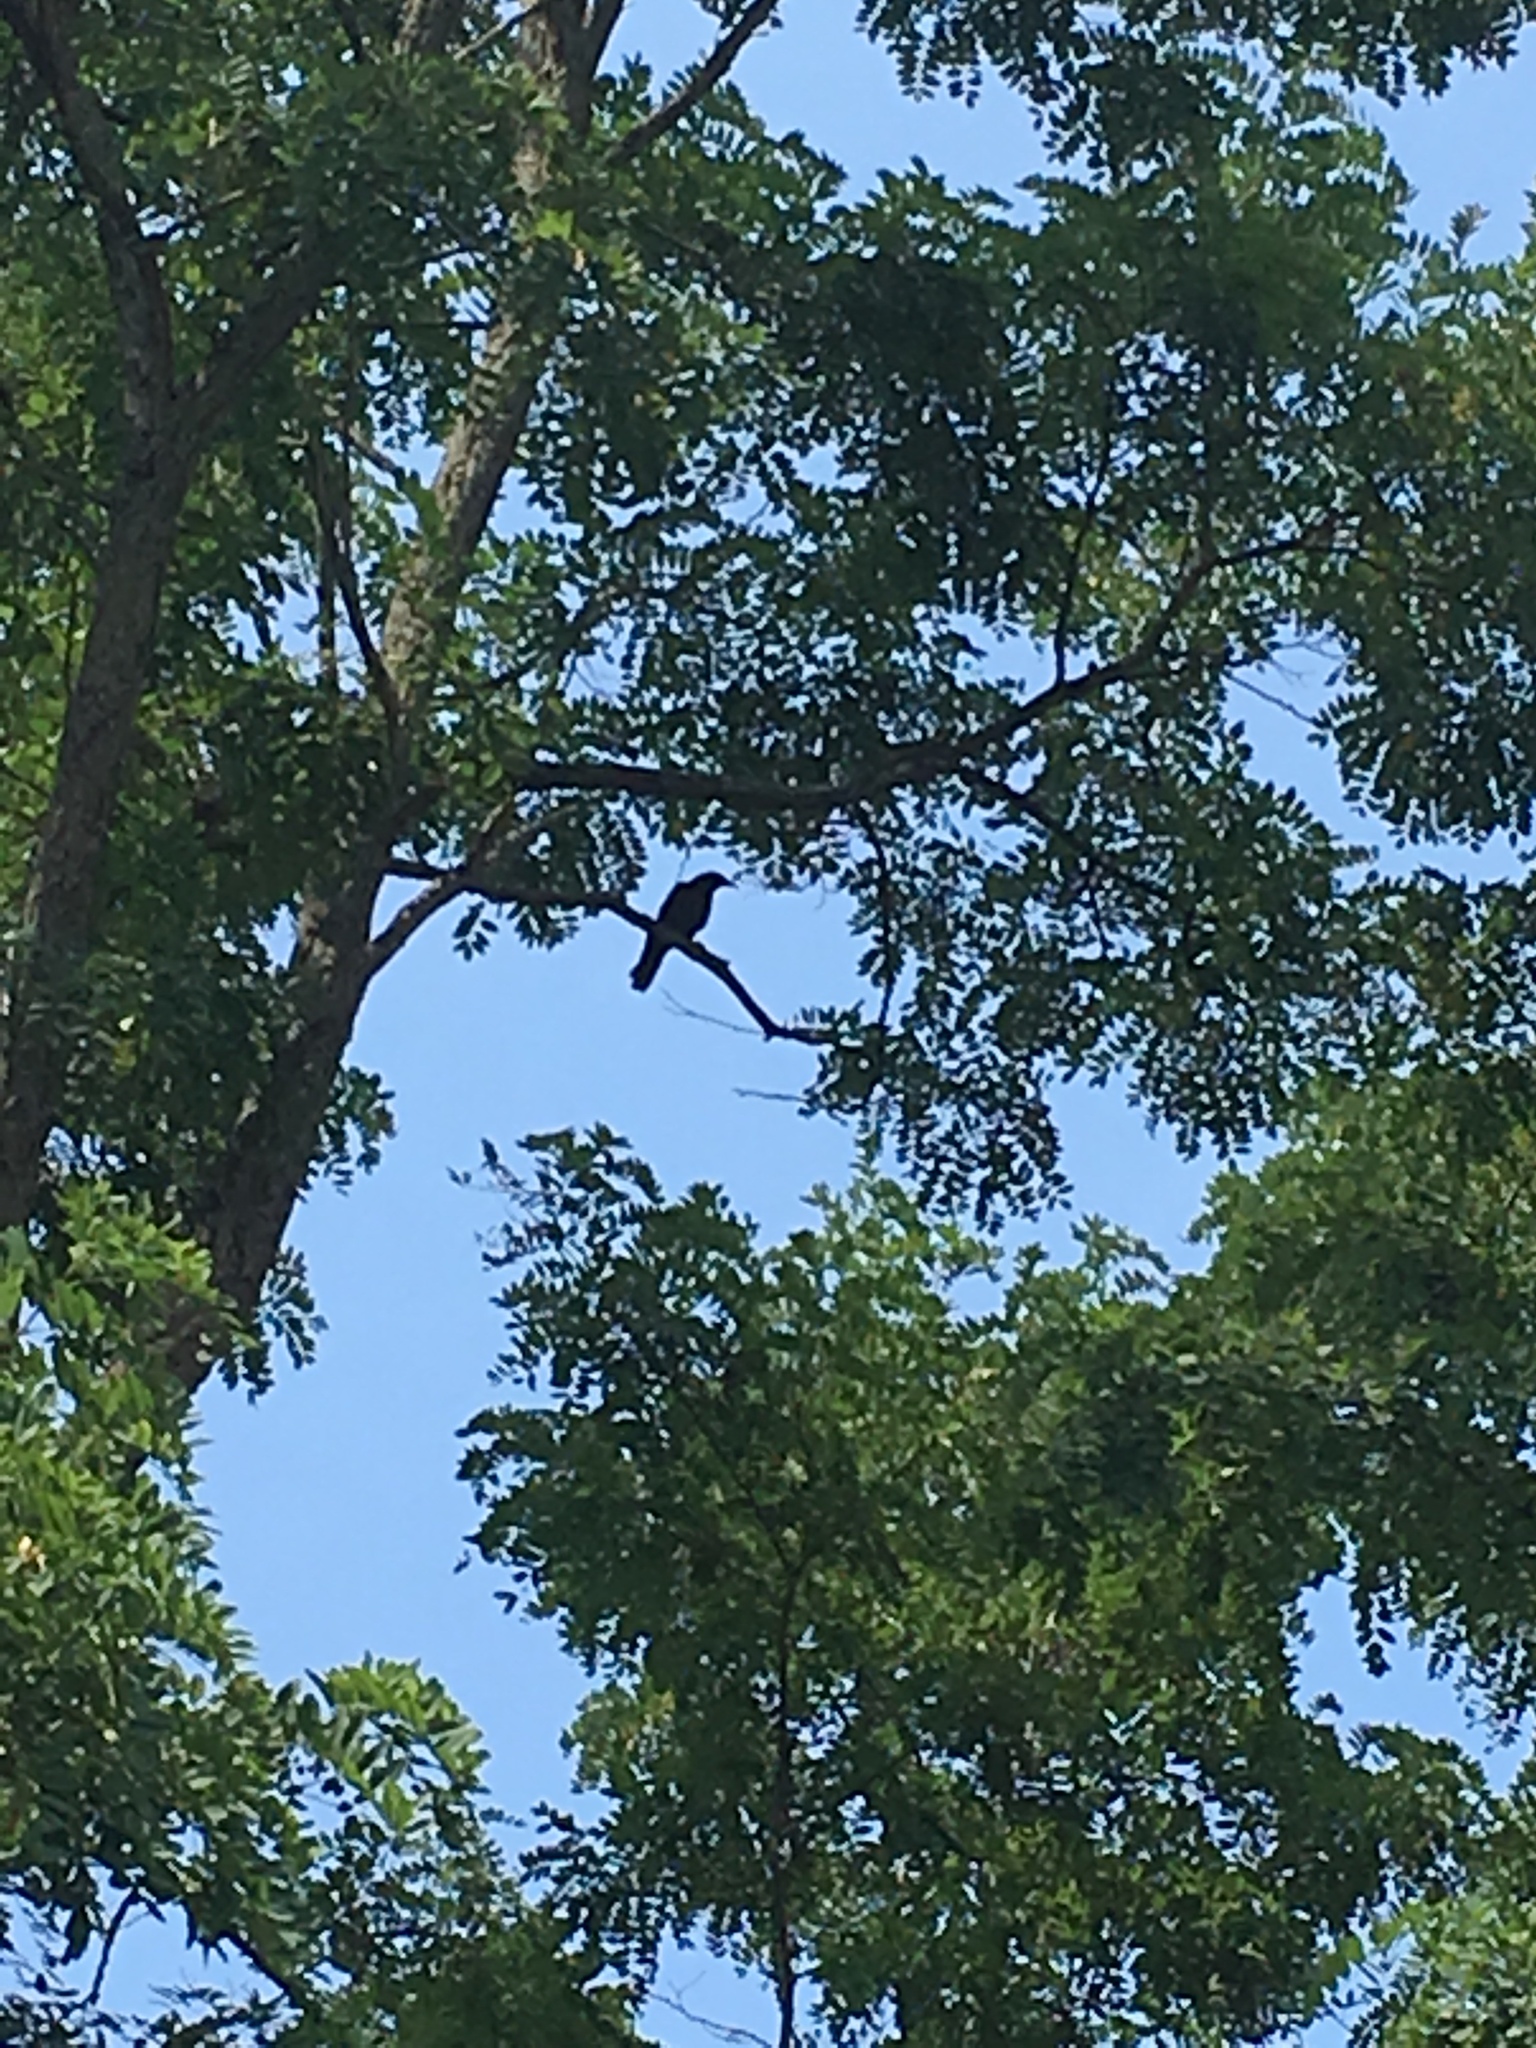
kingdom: Animalia
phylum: Chordata
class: Aves
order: Passeriformes
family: Corvidae
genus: Corvus
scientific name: Corvus ossifragus
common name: Fish crow
